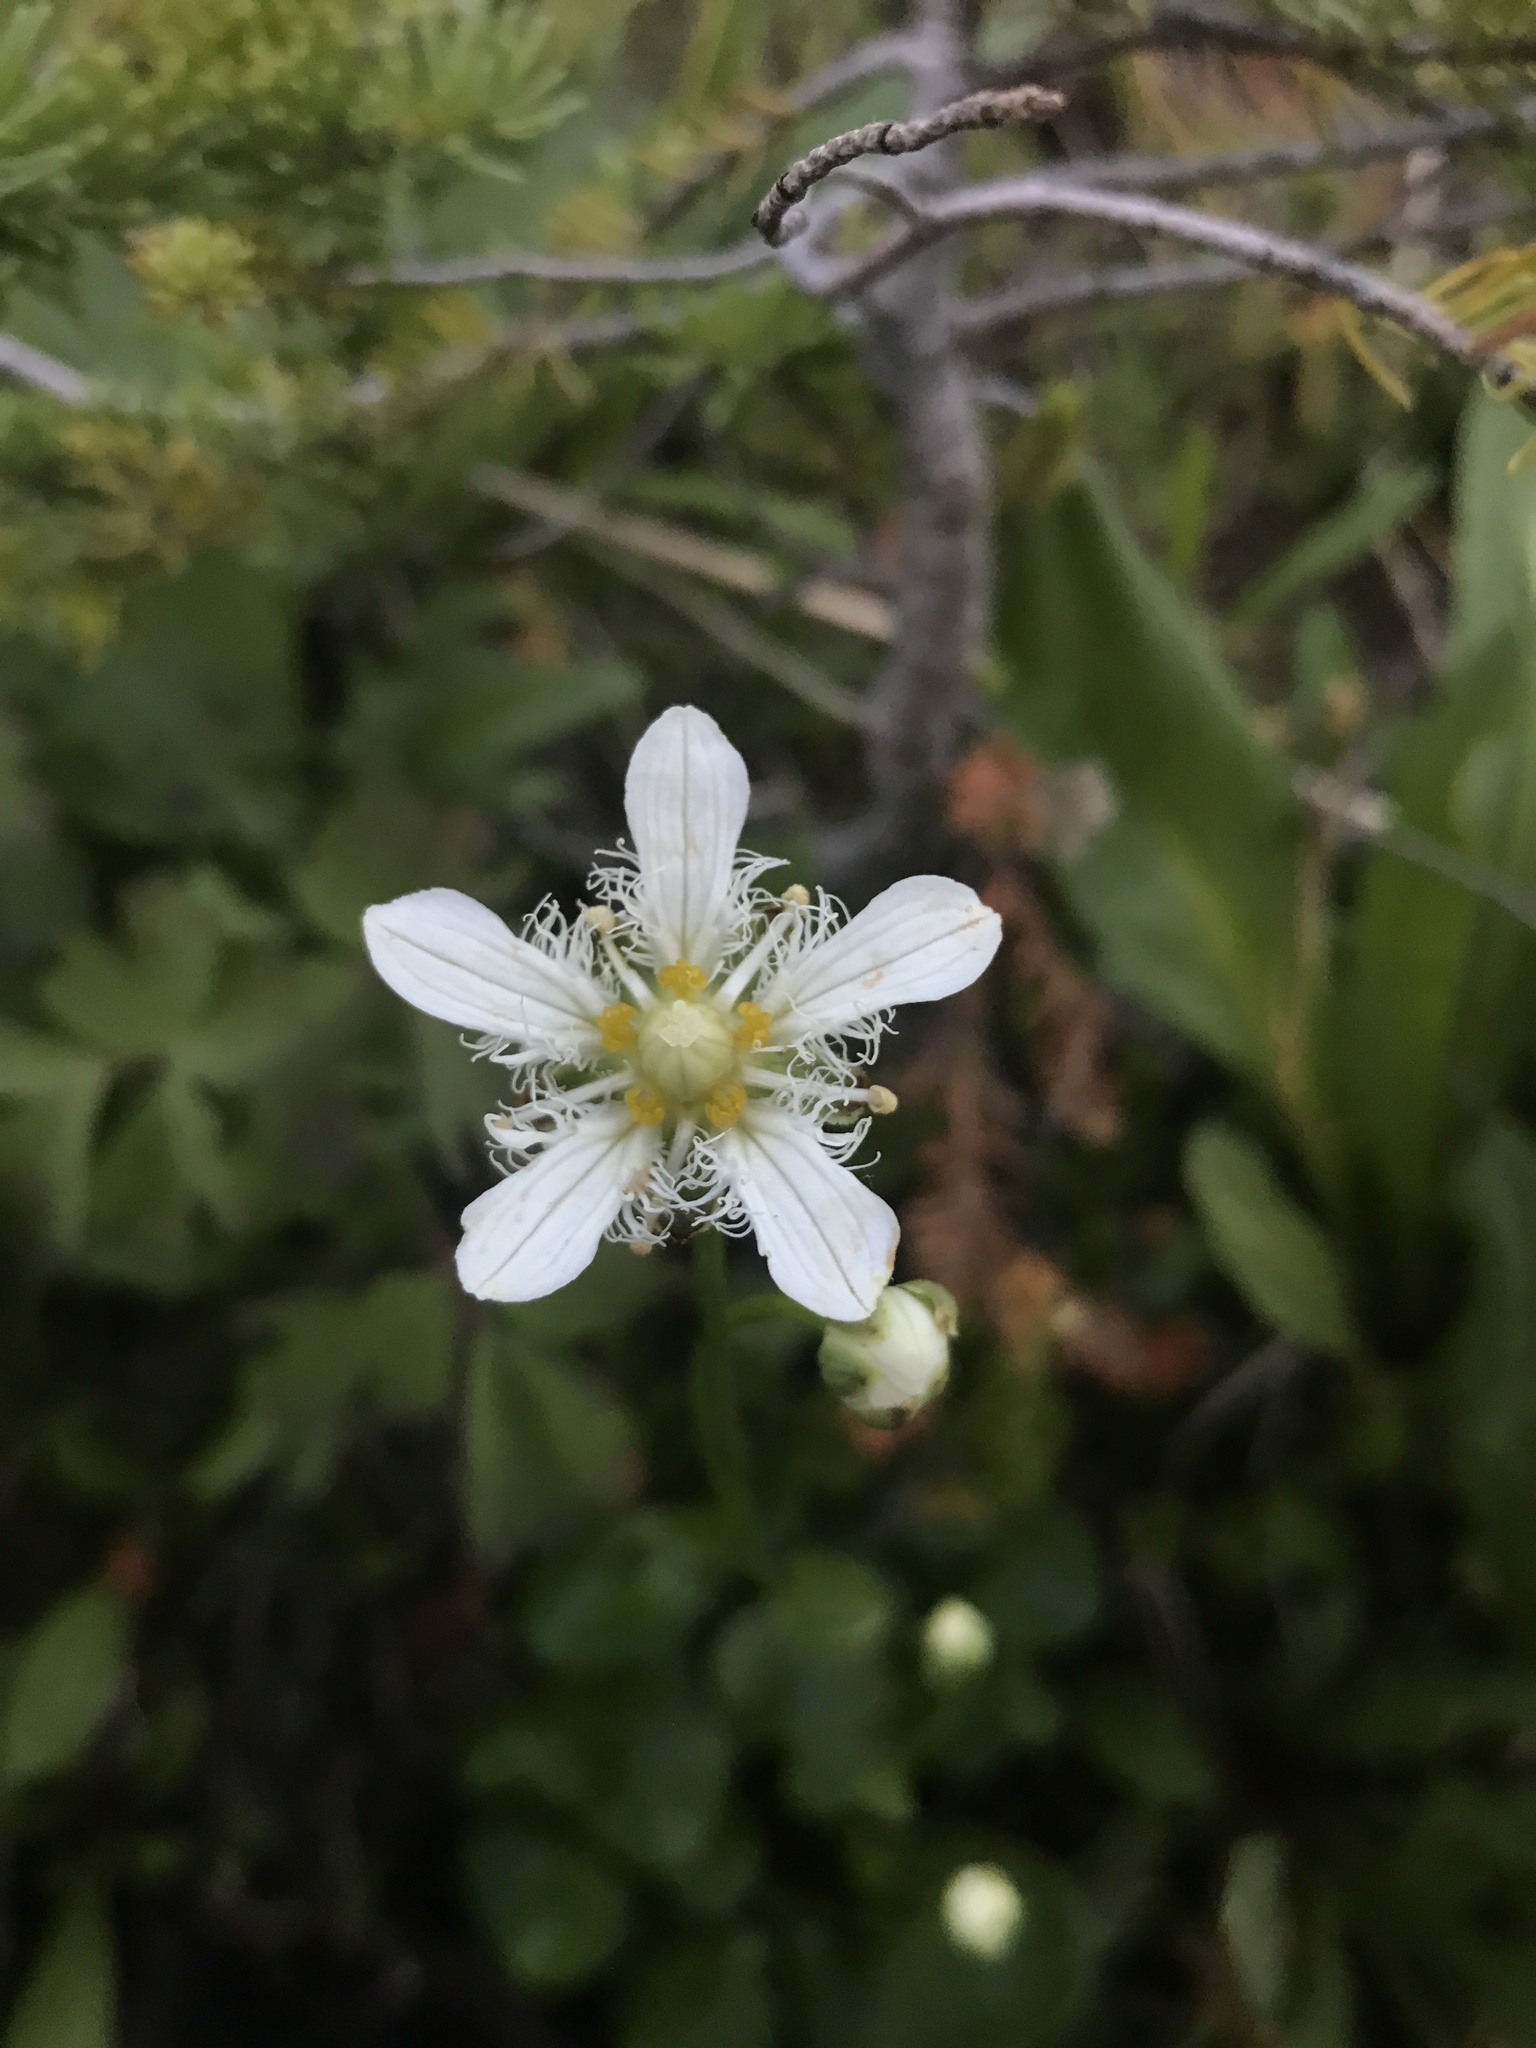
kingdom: Plantae
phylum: Tracheophyta
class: Magnoliopsida
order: Celastrales
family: Parnassiaceae
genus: Parnassia
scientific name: Parnassia fimbriata
